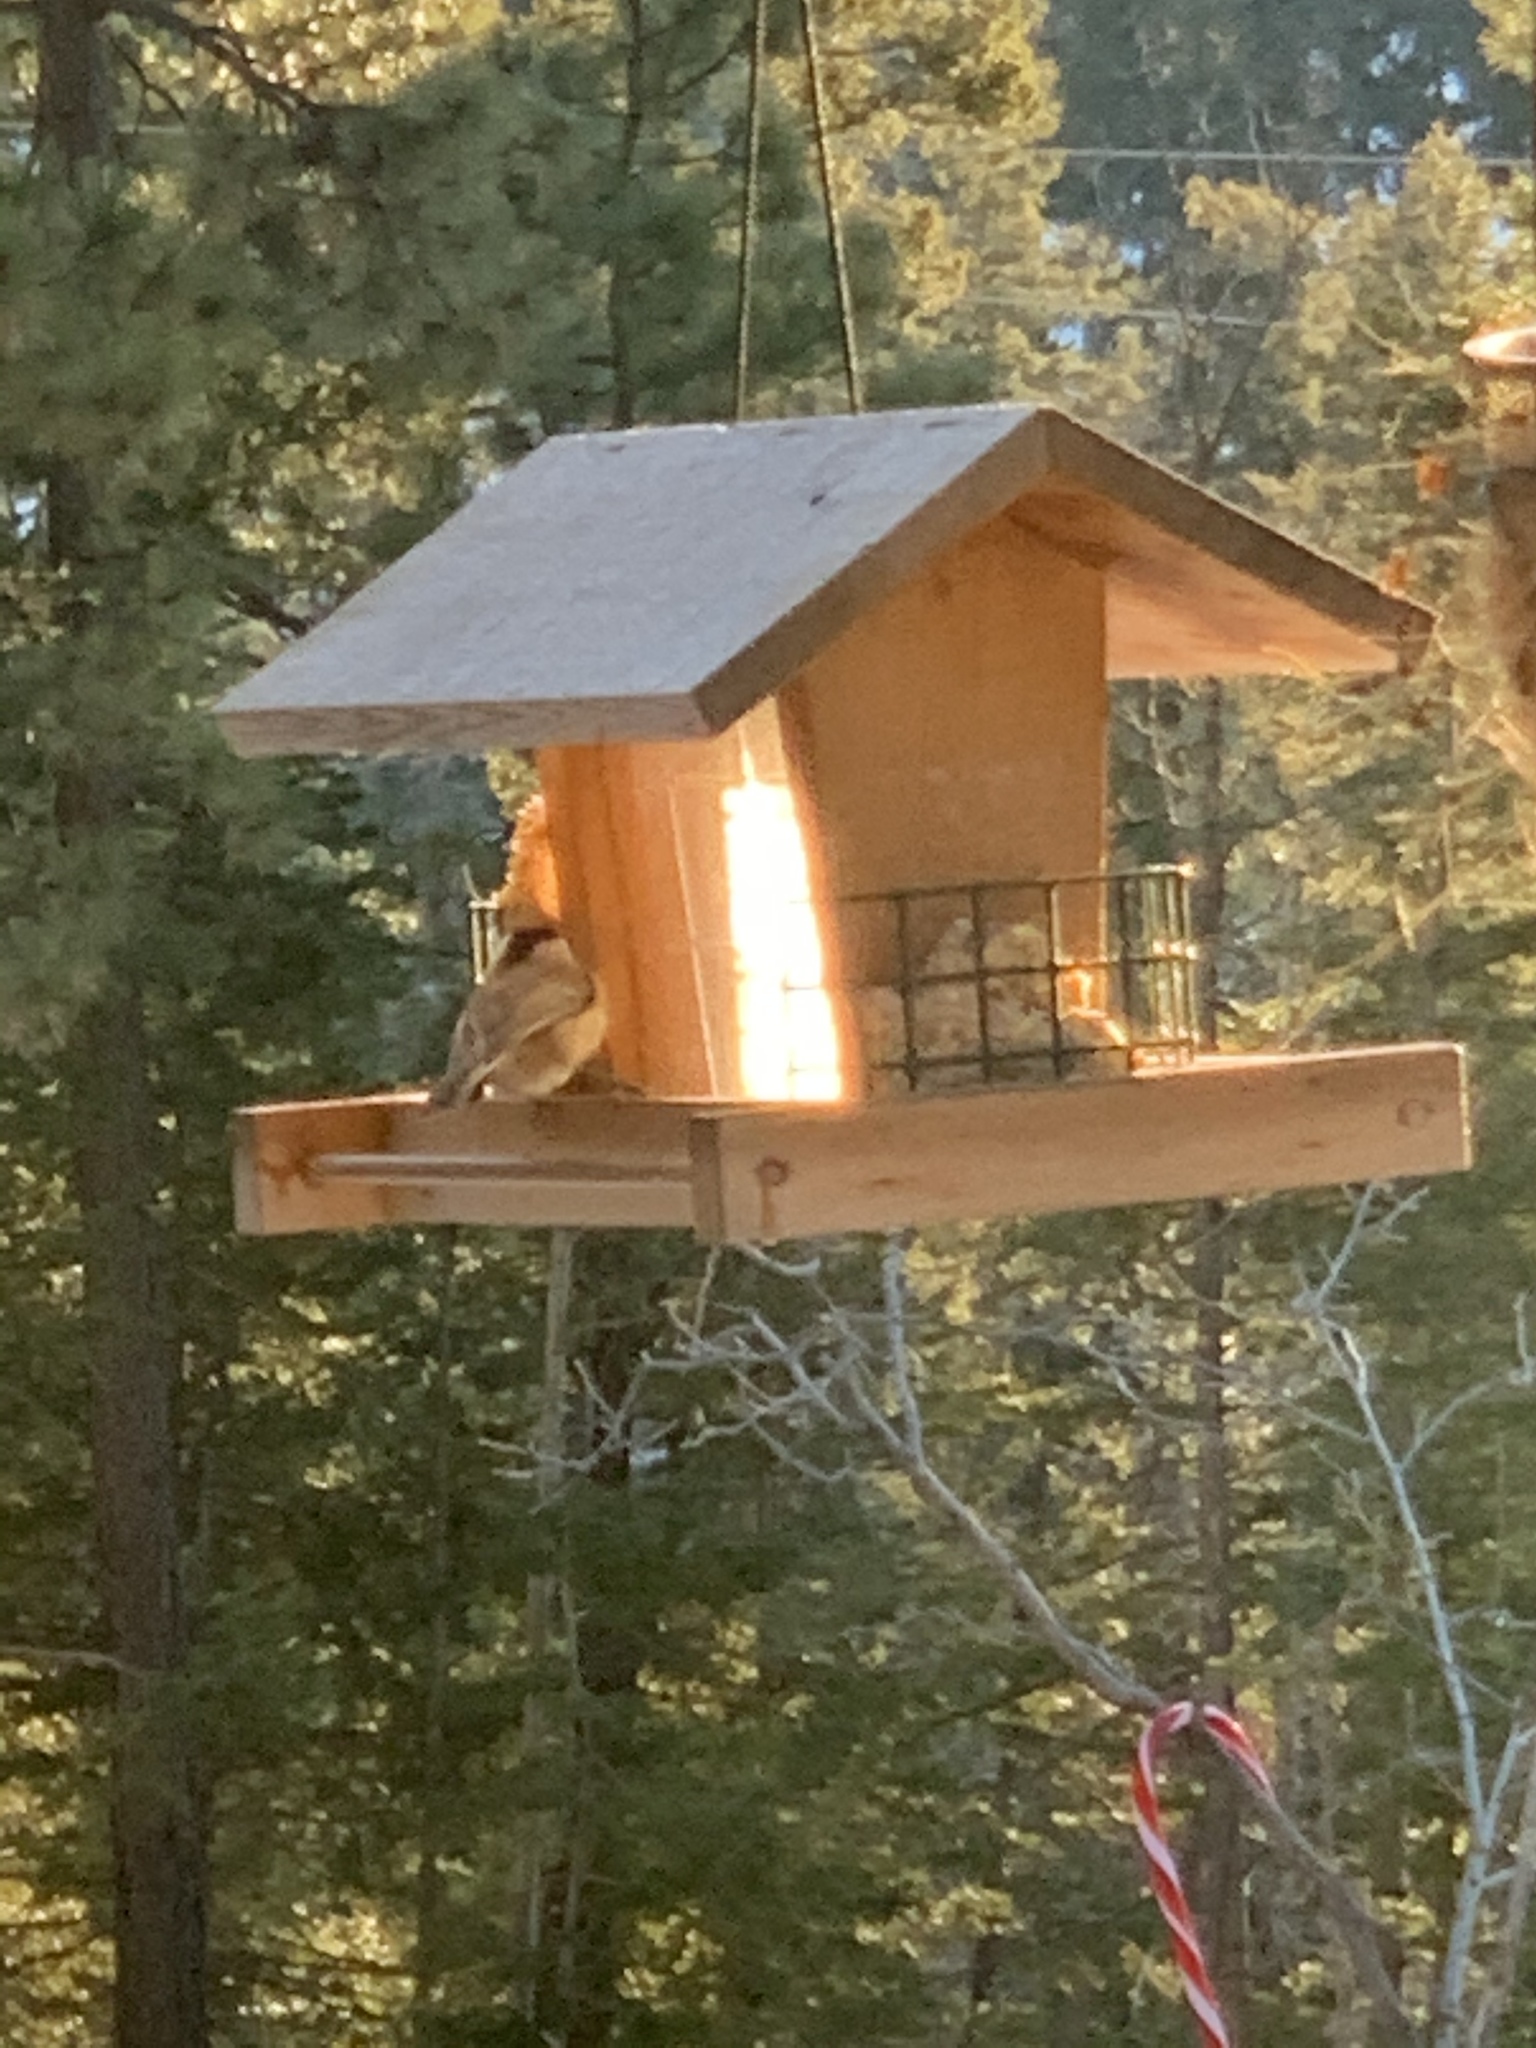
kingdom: Animalia
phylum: Chordata
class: Aves
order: Passeriformes
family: Paridae
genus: Poecile
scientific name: Poecile gambeli
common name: Mountain chickadee
